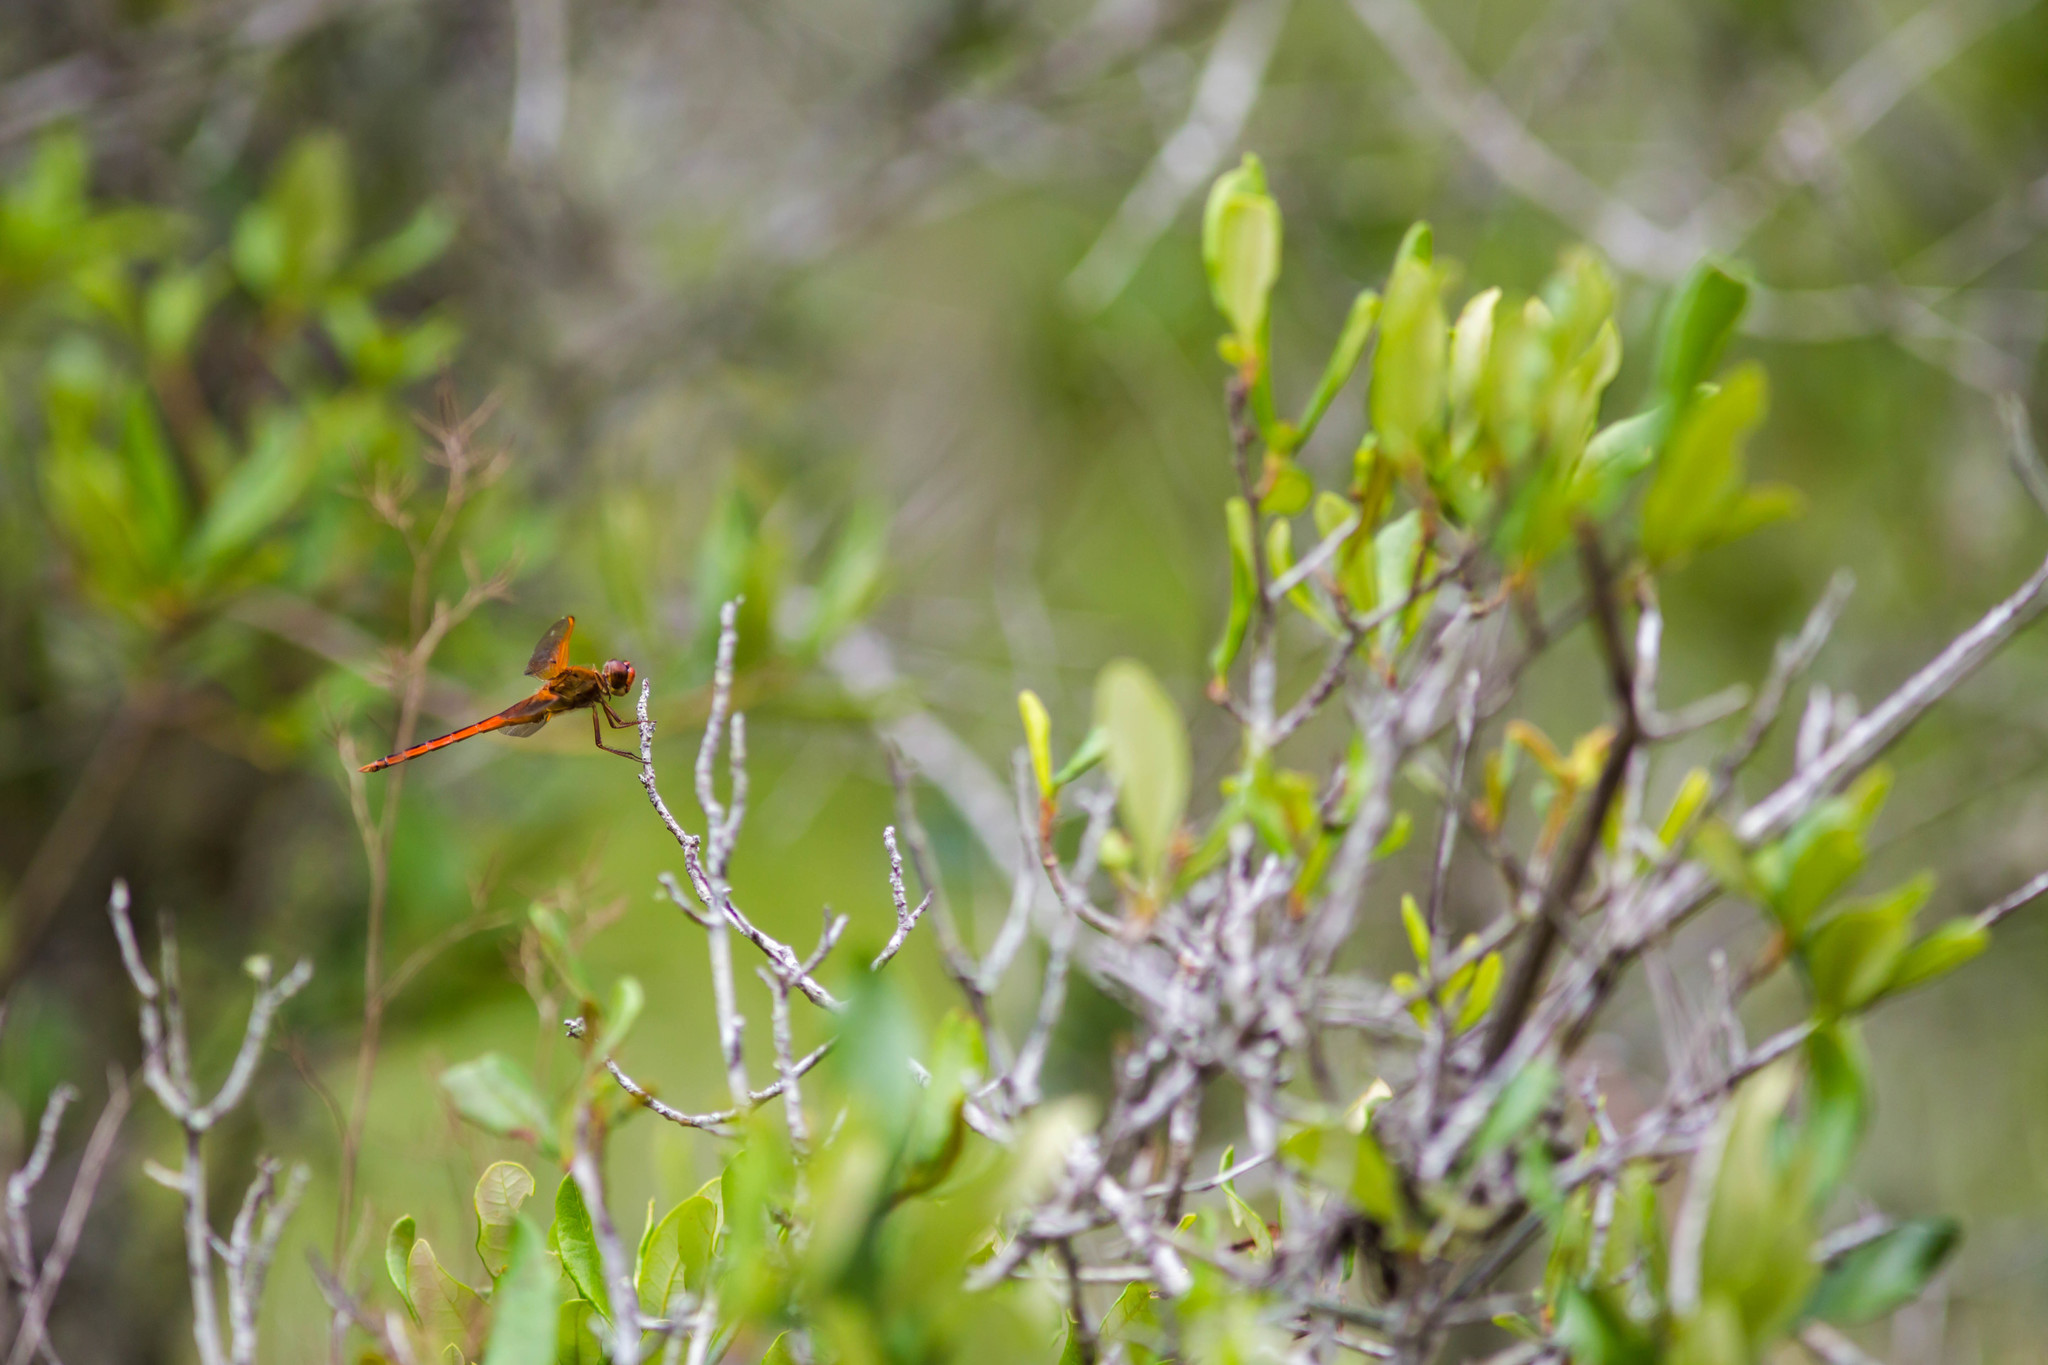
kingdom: Animalia
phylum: Arthropoda
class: Insecta
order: Odonata
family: Libellulidae
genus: Libellula
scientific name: Libellula needhami
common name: Needham's skimmer
